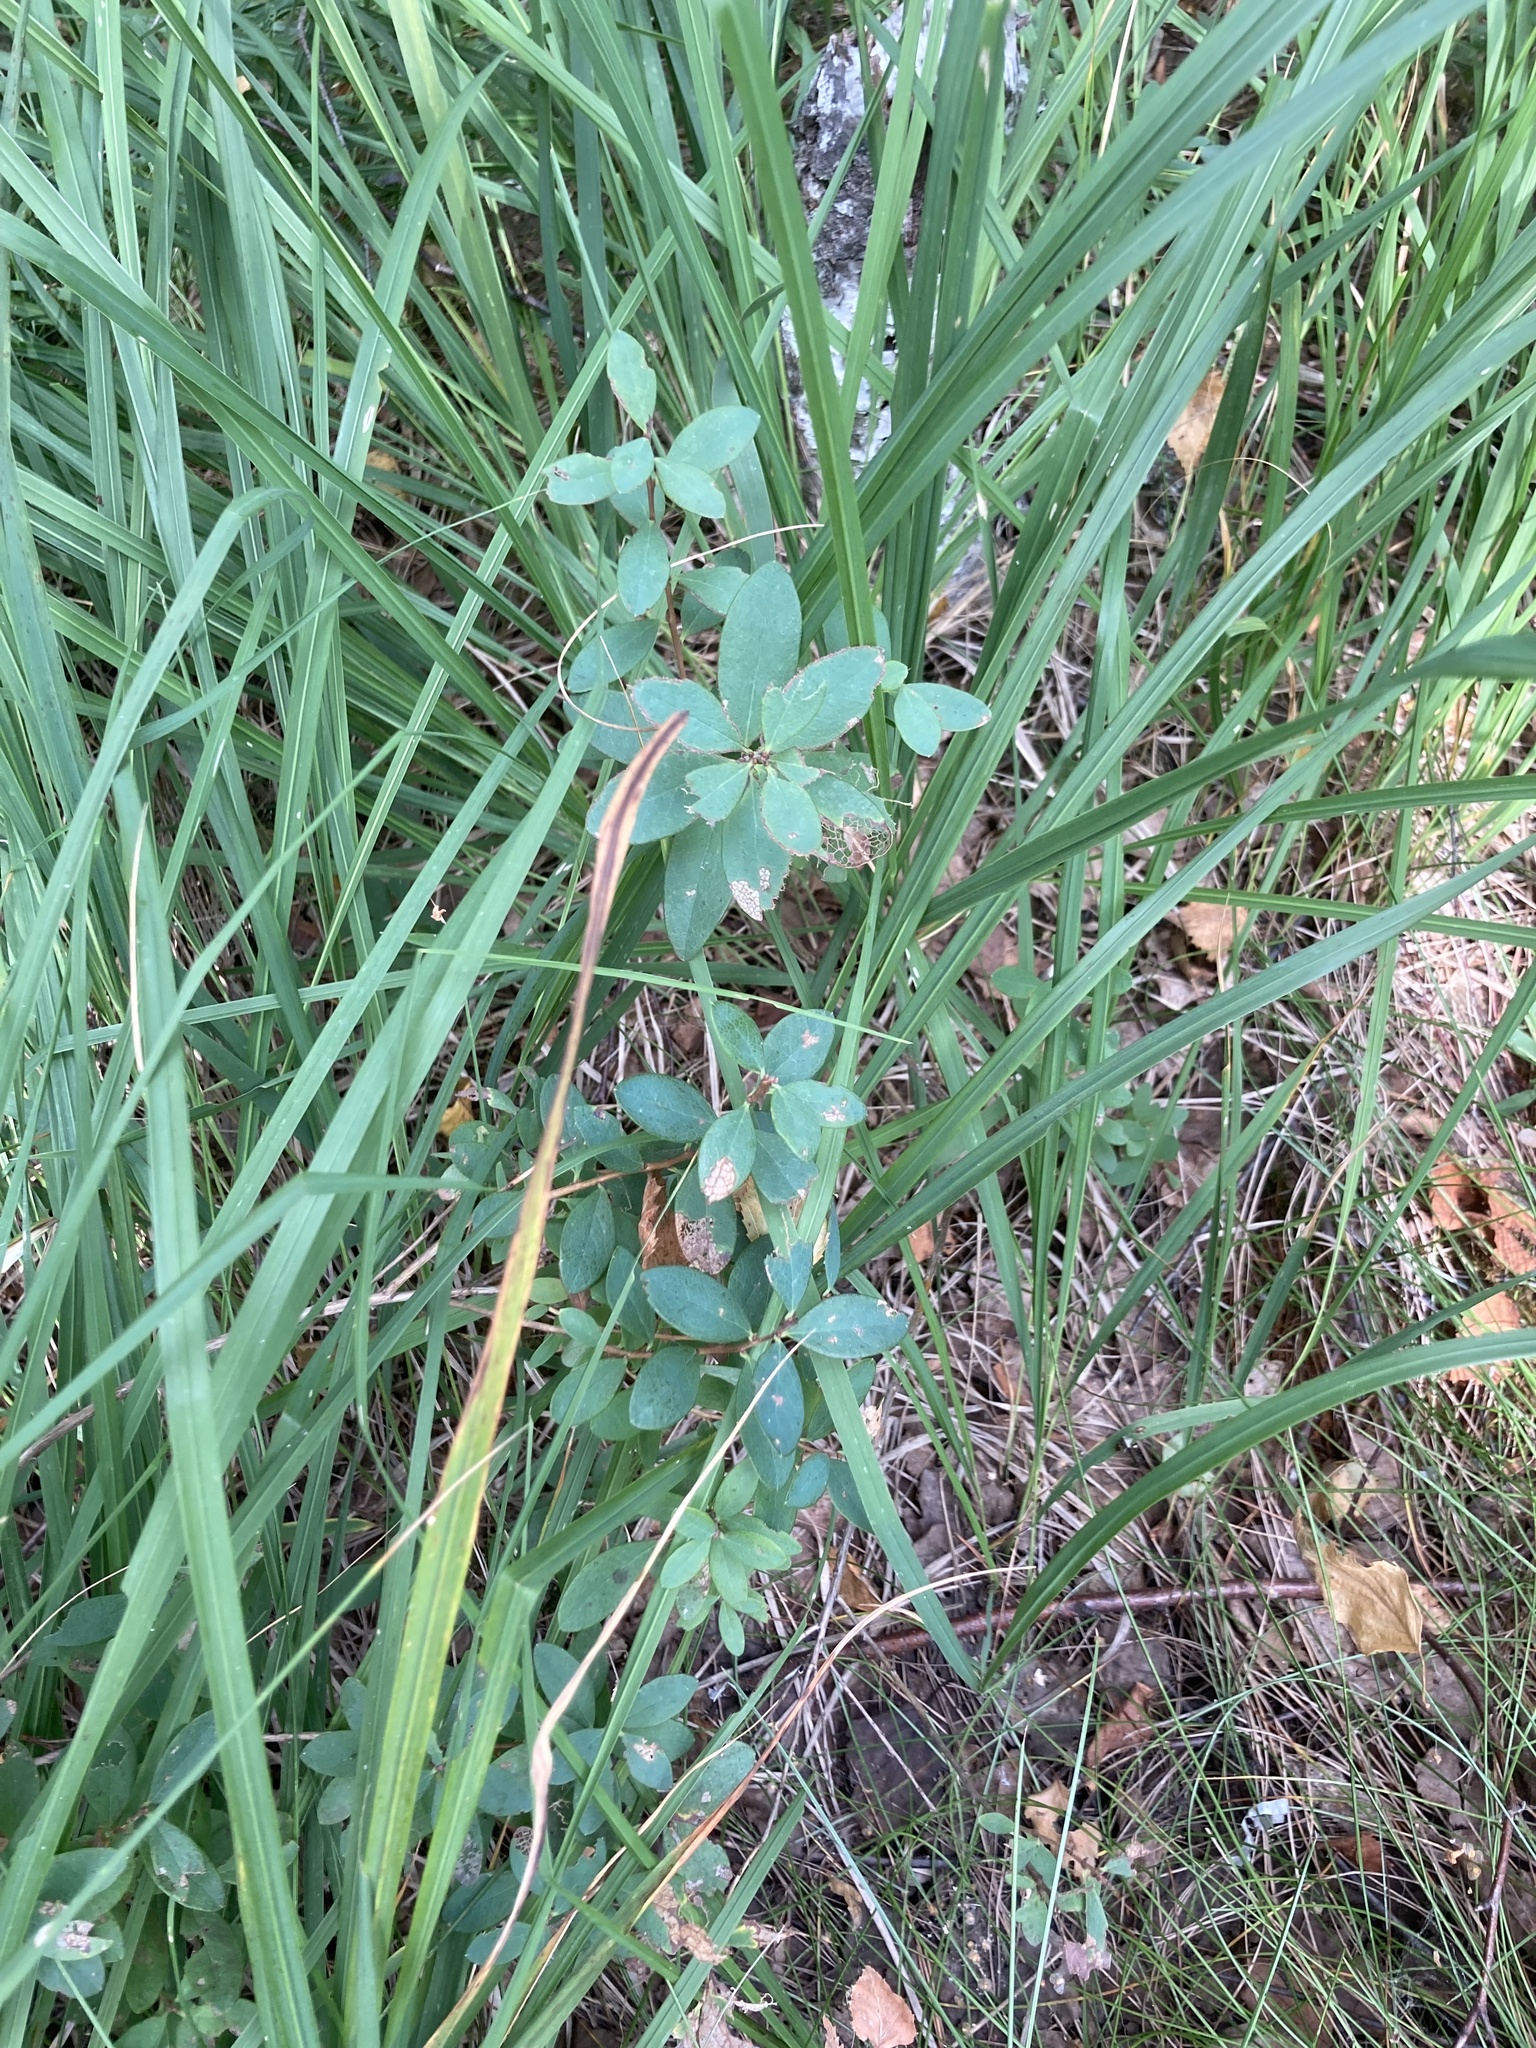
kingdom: Plantae
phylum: Tracheophyta
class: Magnoliopsida
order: Ericales
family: Ericaceae
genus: Vaccinium
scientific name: Vaccinium uliginosum
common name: Bog bilberry
